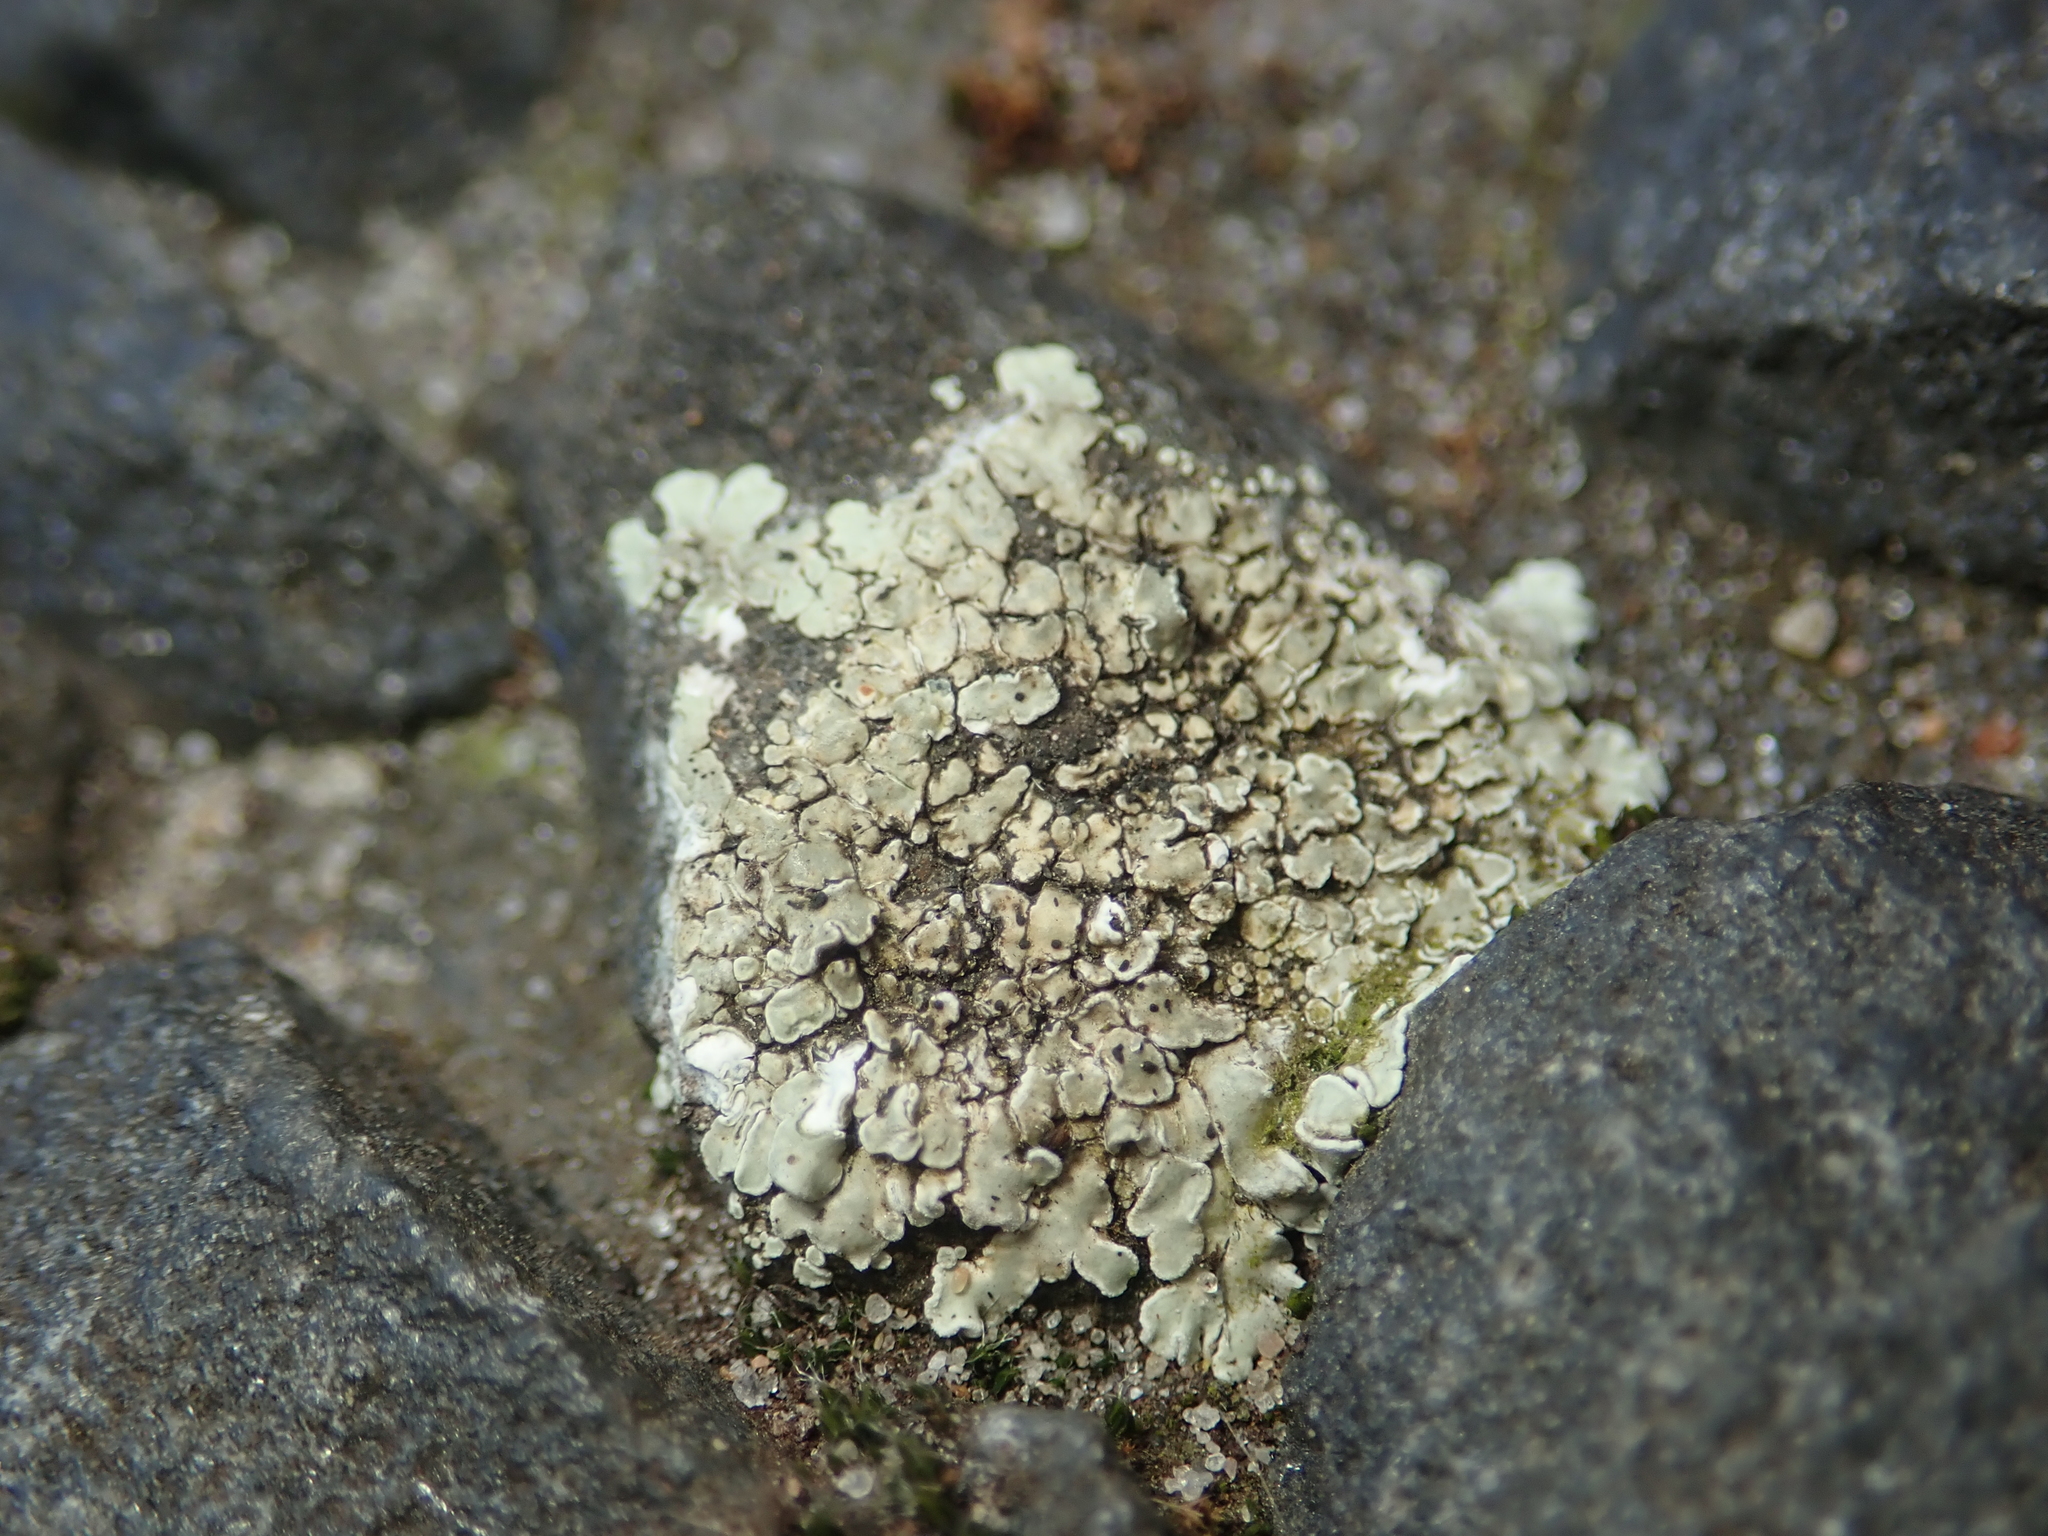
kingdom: Fungi
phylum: Ascomycota
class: Lecanoromycetes
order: Lecanorales
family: Lecanoraceae
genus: Protoparmeliopsis
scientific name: Protoparmeliopsis muralis
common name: Stonewall rim lichen
